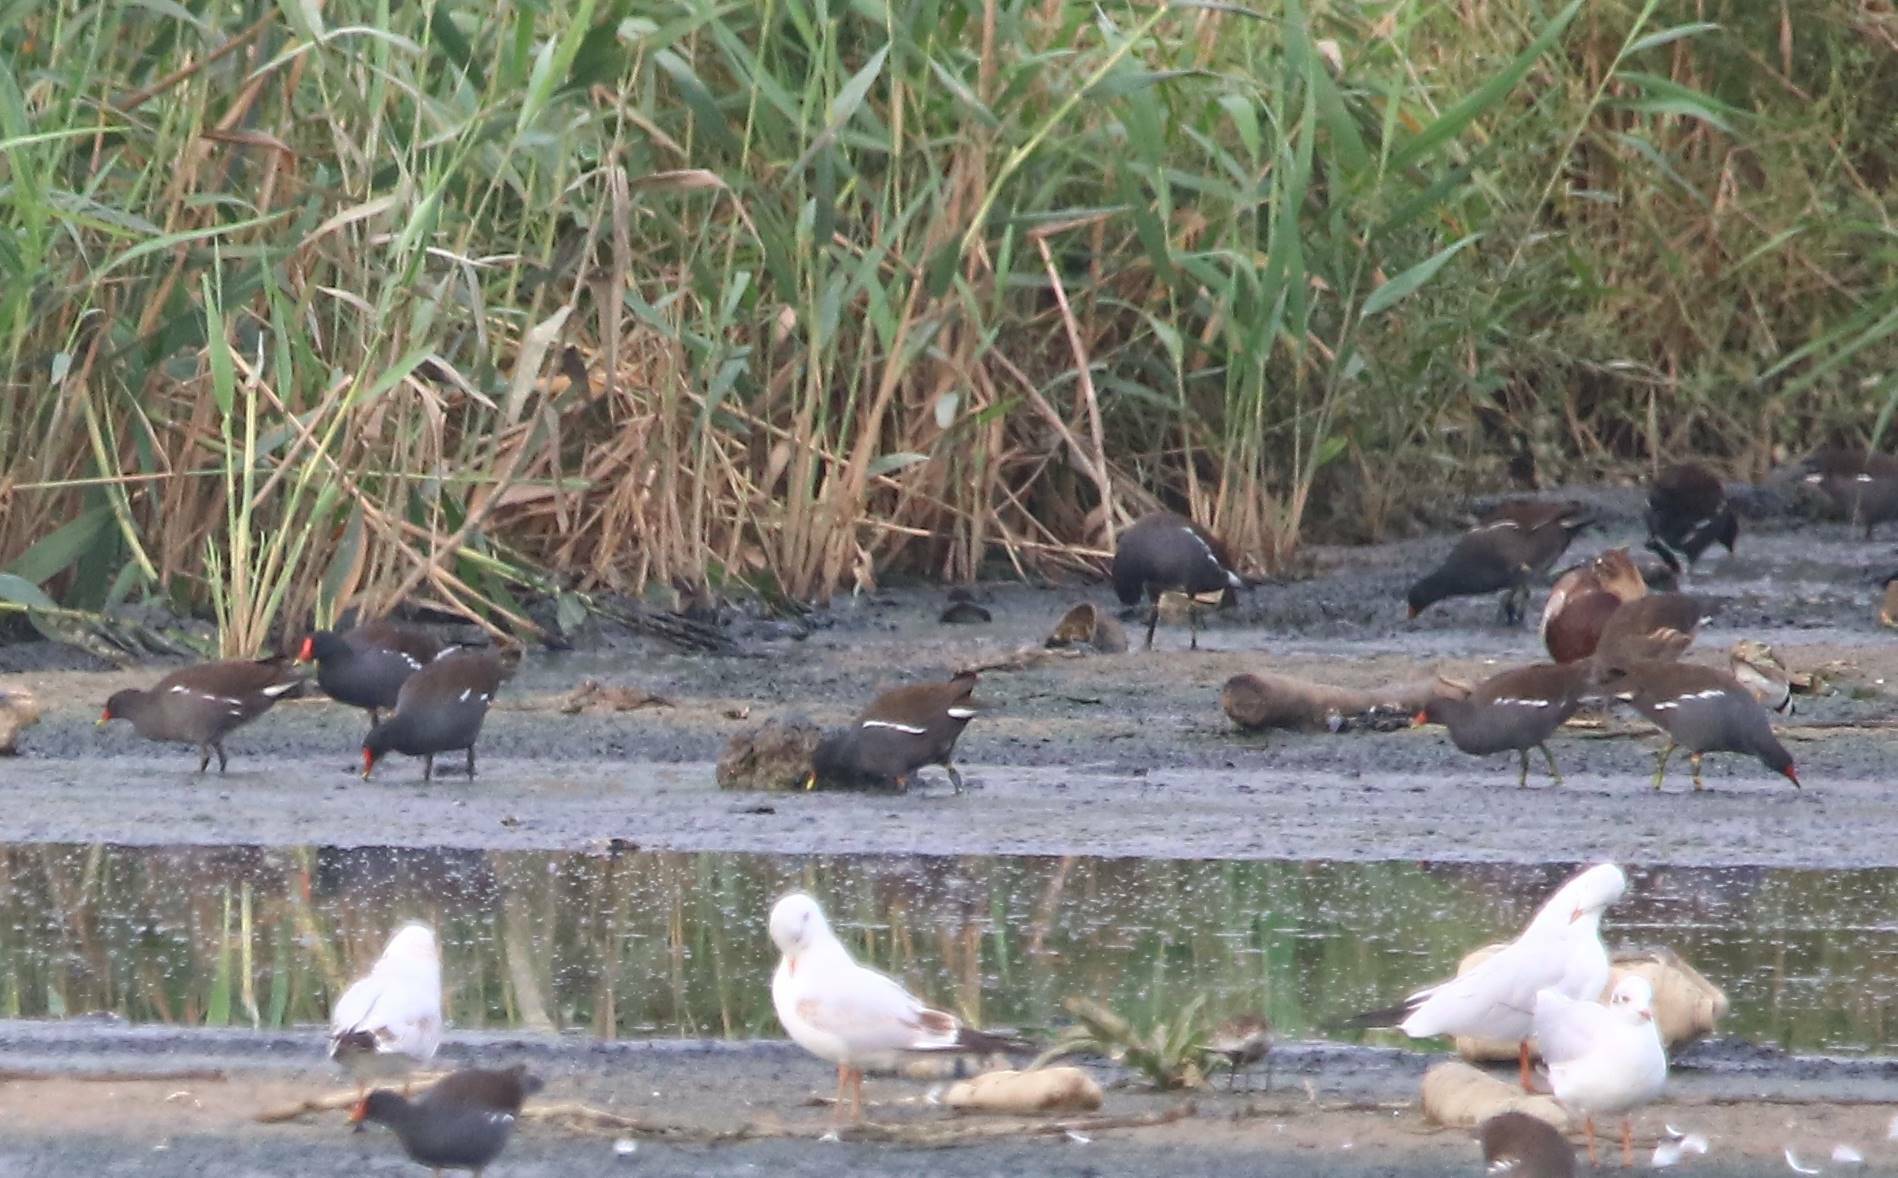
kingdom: Animalia
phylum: Chordata
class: Aves
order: Gruiformes
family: Rallidae
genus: Gallinula
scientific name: Gallinula chloropus
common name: Common moorhen
